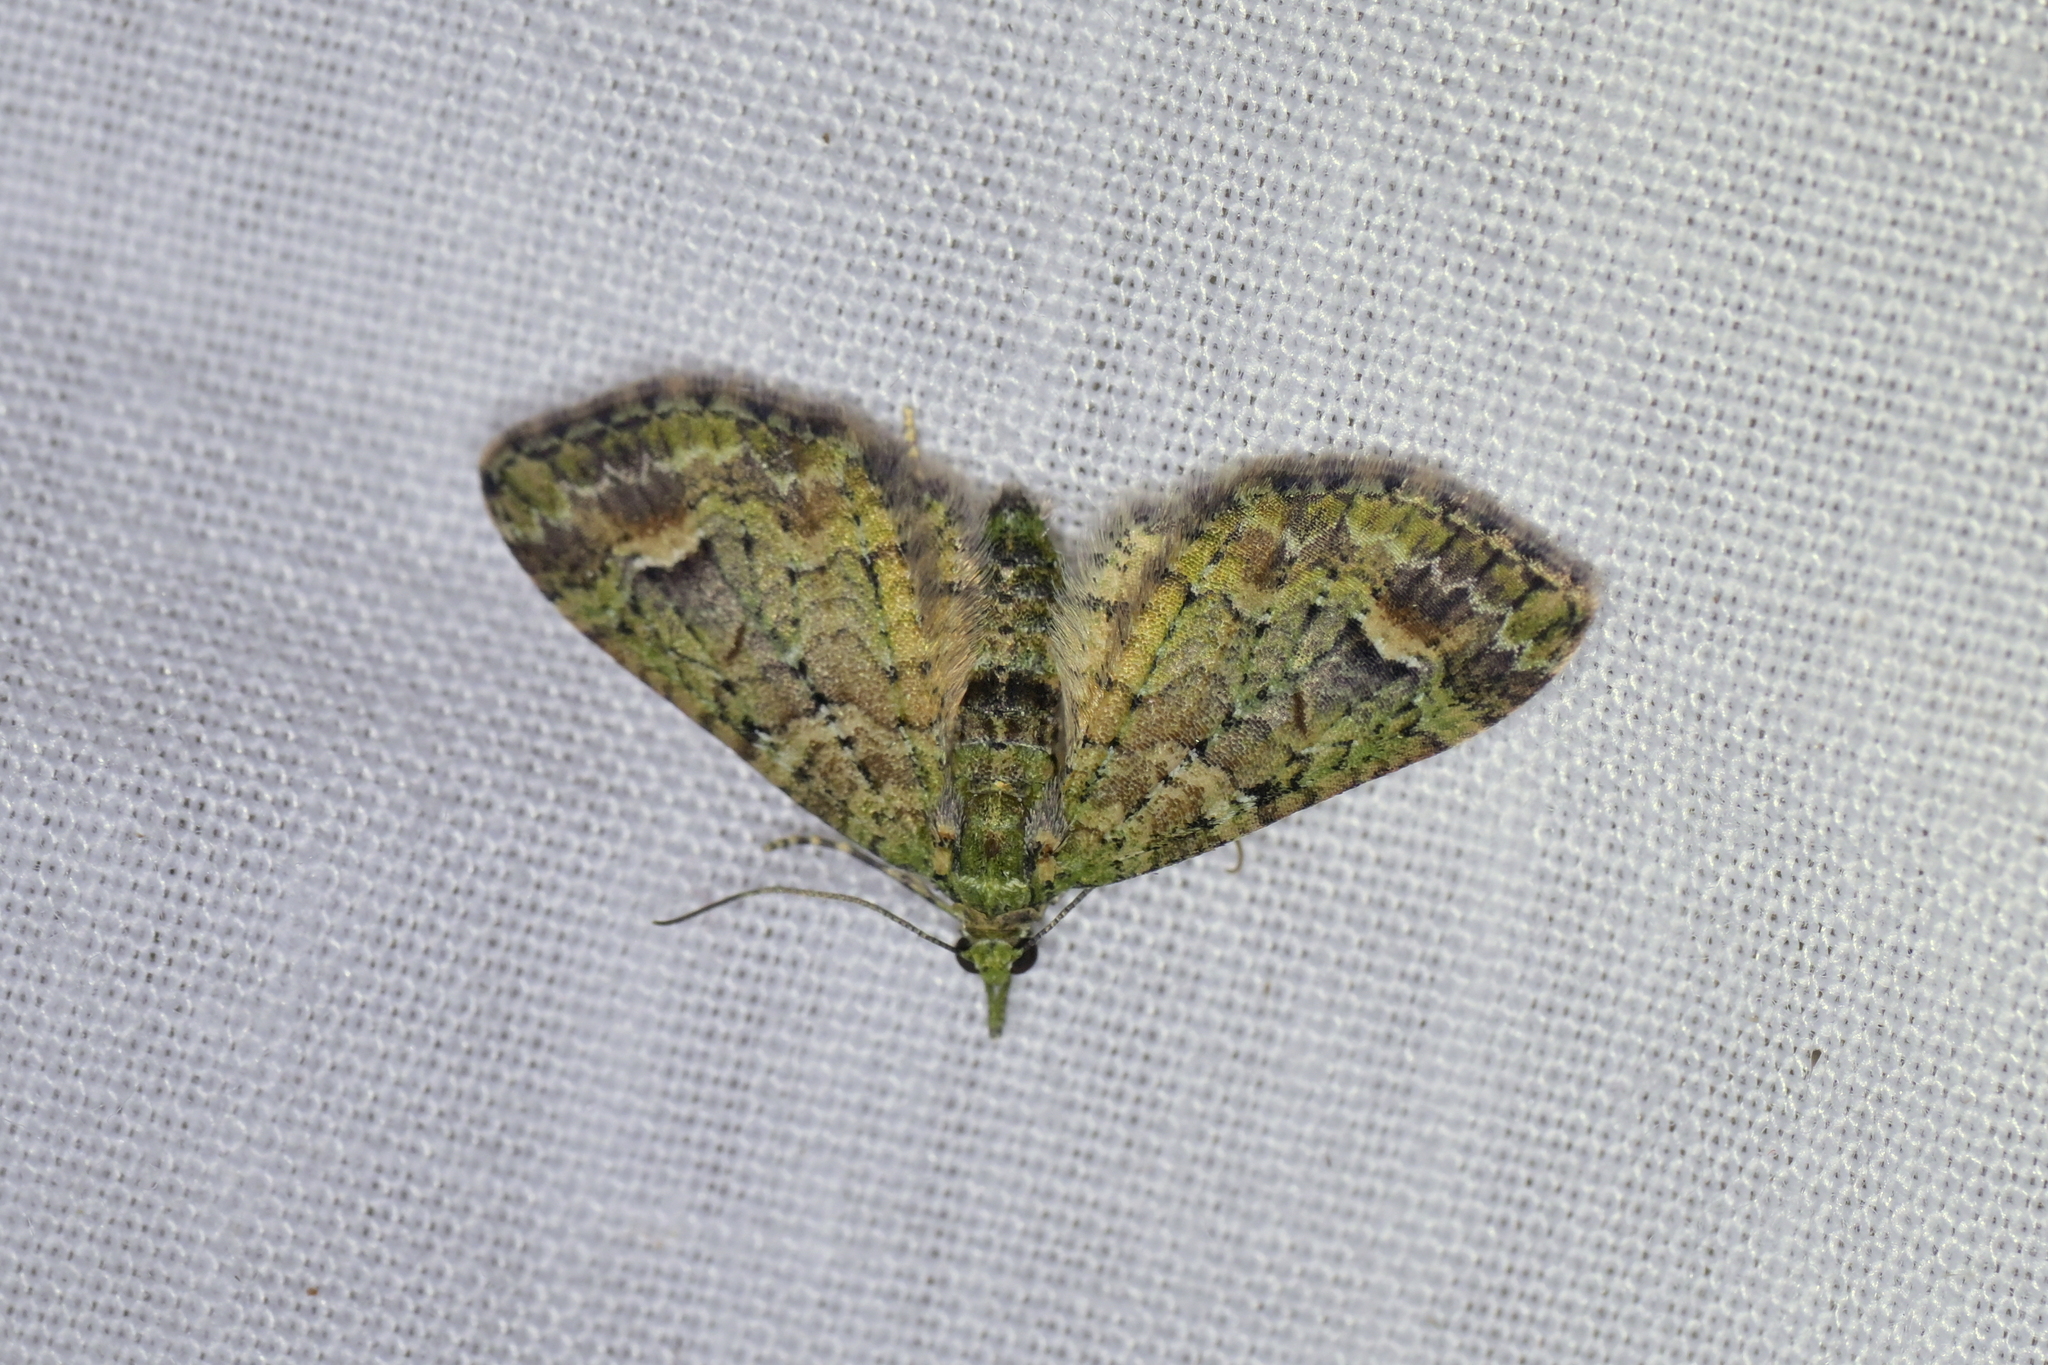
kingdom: Animalia
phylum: Arthropoda
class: Insecta
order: Lepidoptera
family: Geometridae
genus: Idaea
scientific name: Idaea mutanda
